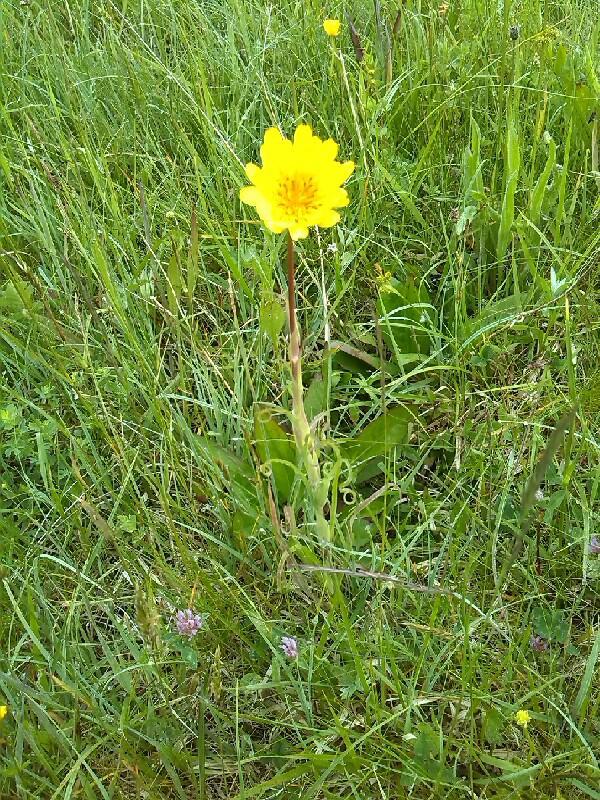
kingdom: Plantae
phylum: Tracheophyta
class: Magnoliopsida
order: Asterales
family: Asteraceae
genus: Tragopogon
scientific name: Tragopogon pratensis
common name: Goat's-beard
